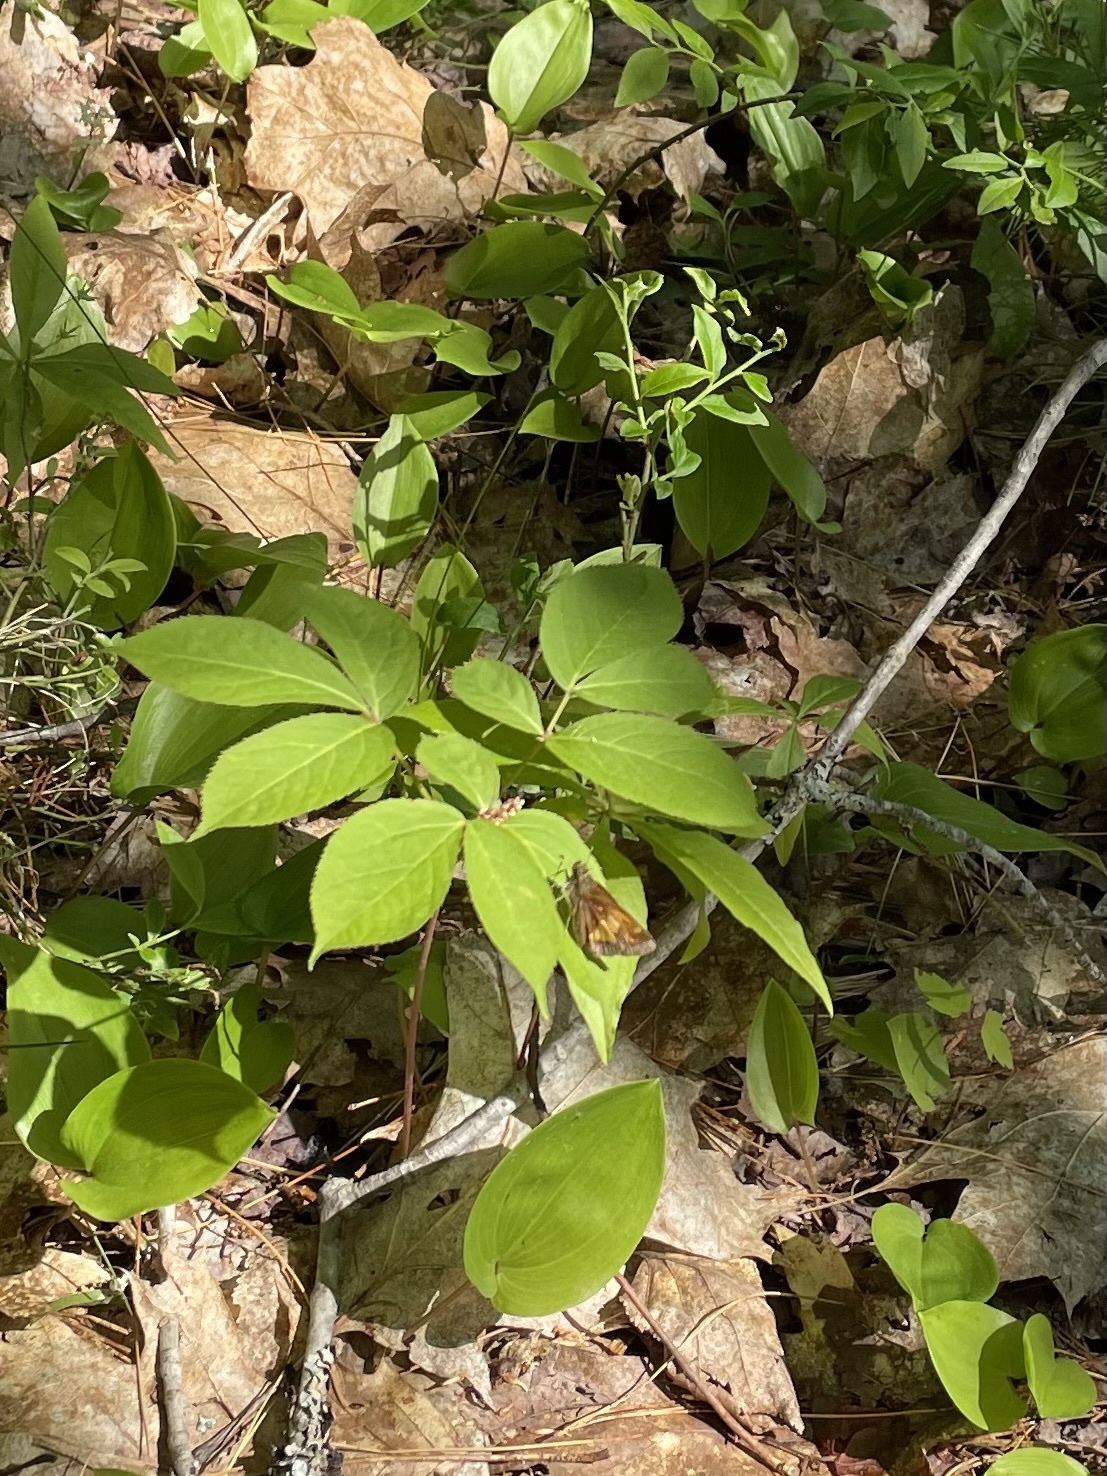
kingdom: Animalia
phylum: Arthropoda
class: Insecta
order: Lepidoptera
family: Hesperiidae
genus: Lon
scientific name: Lon hobomok
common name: Hobomok skipper
